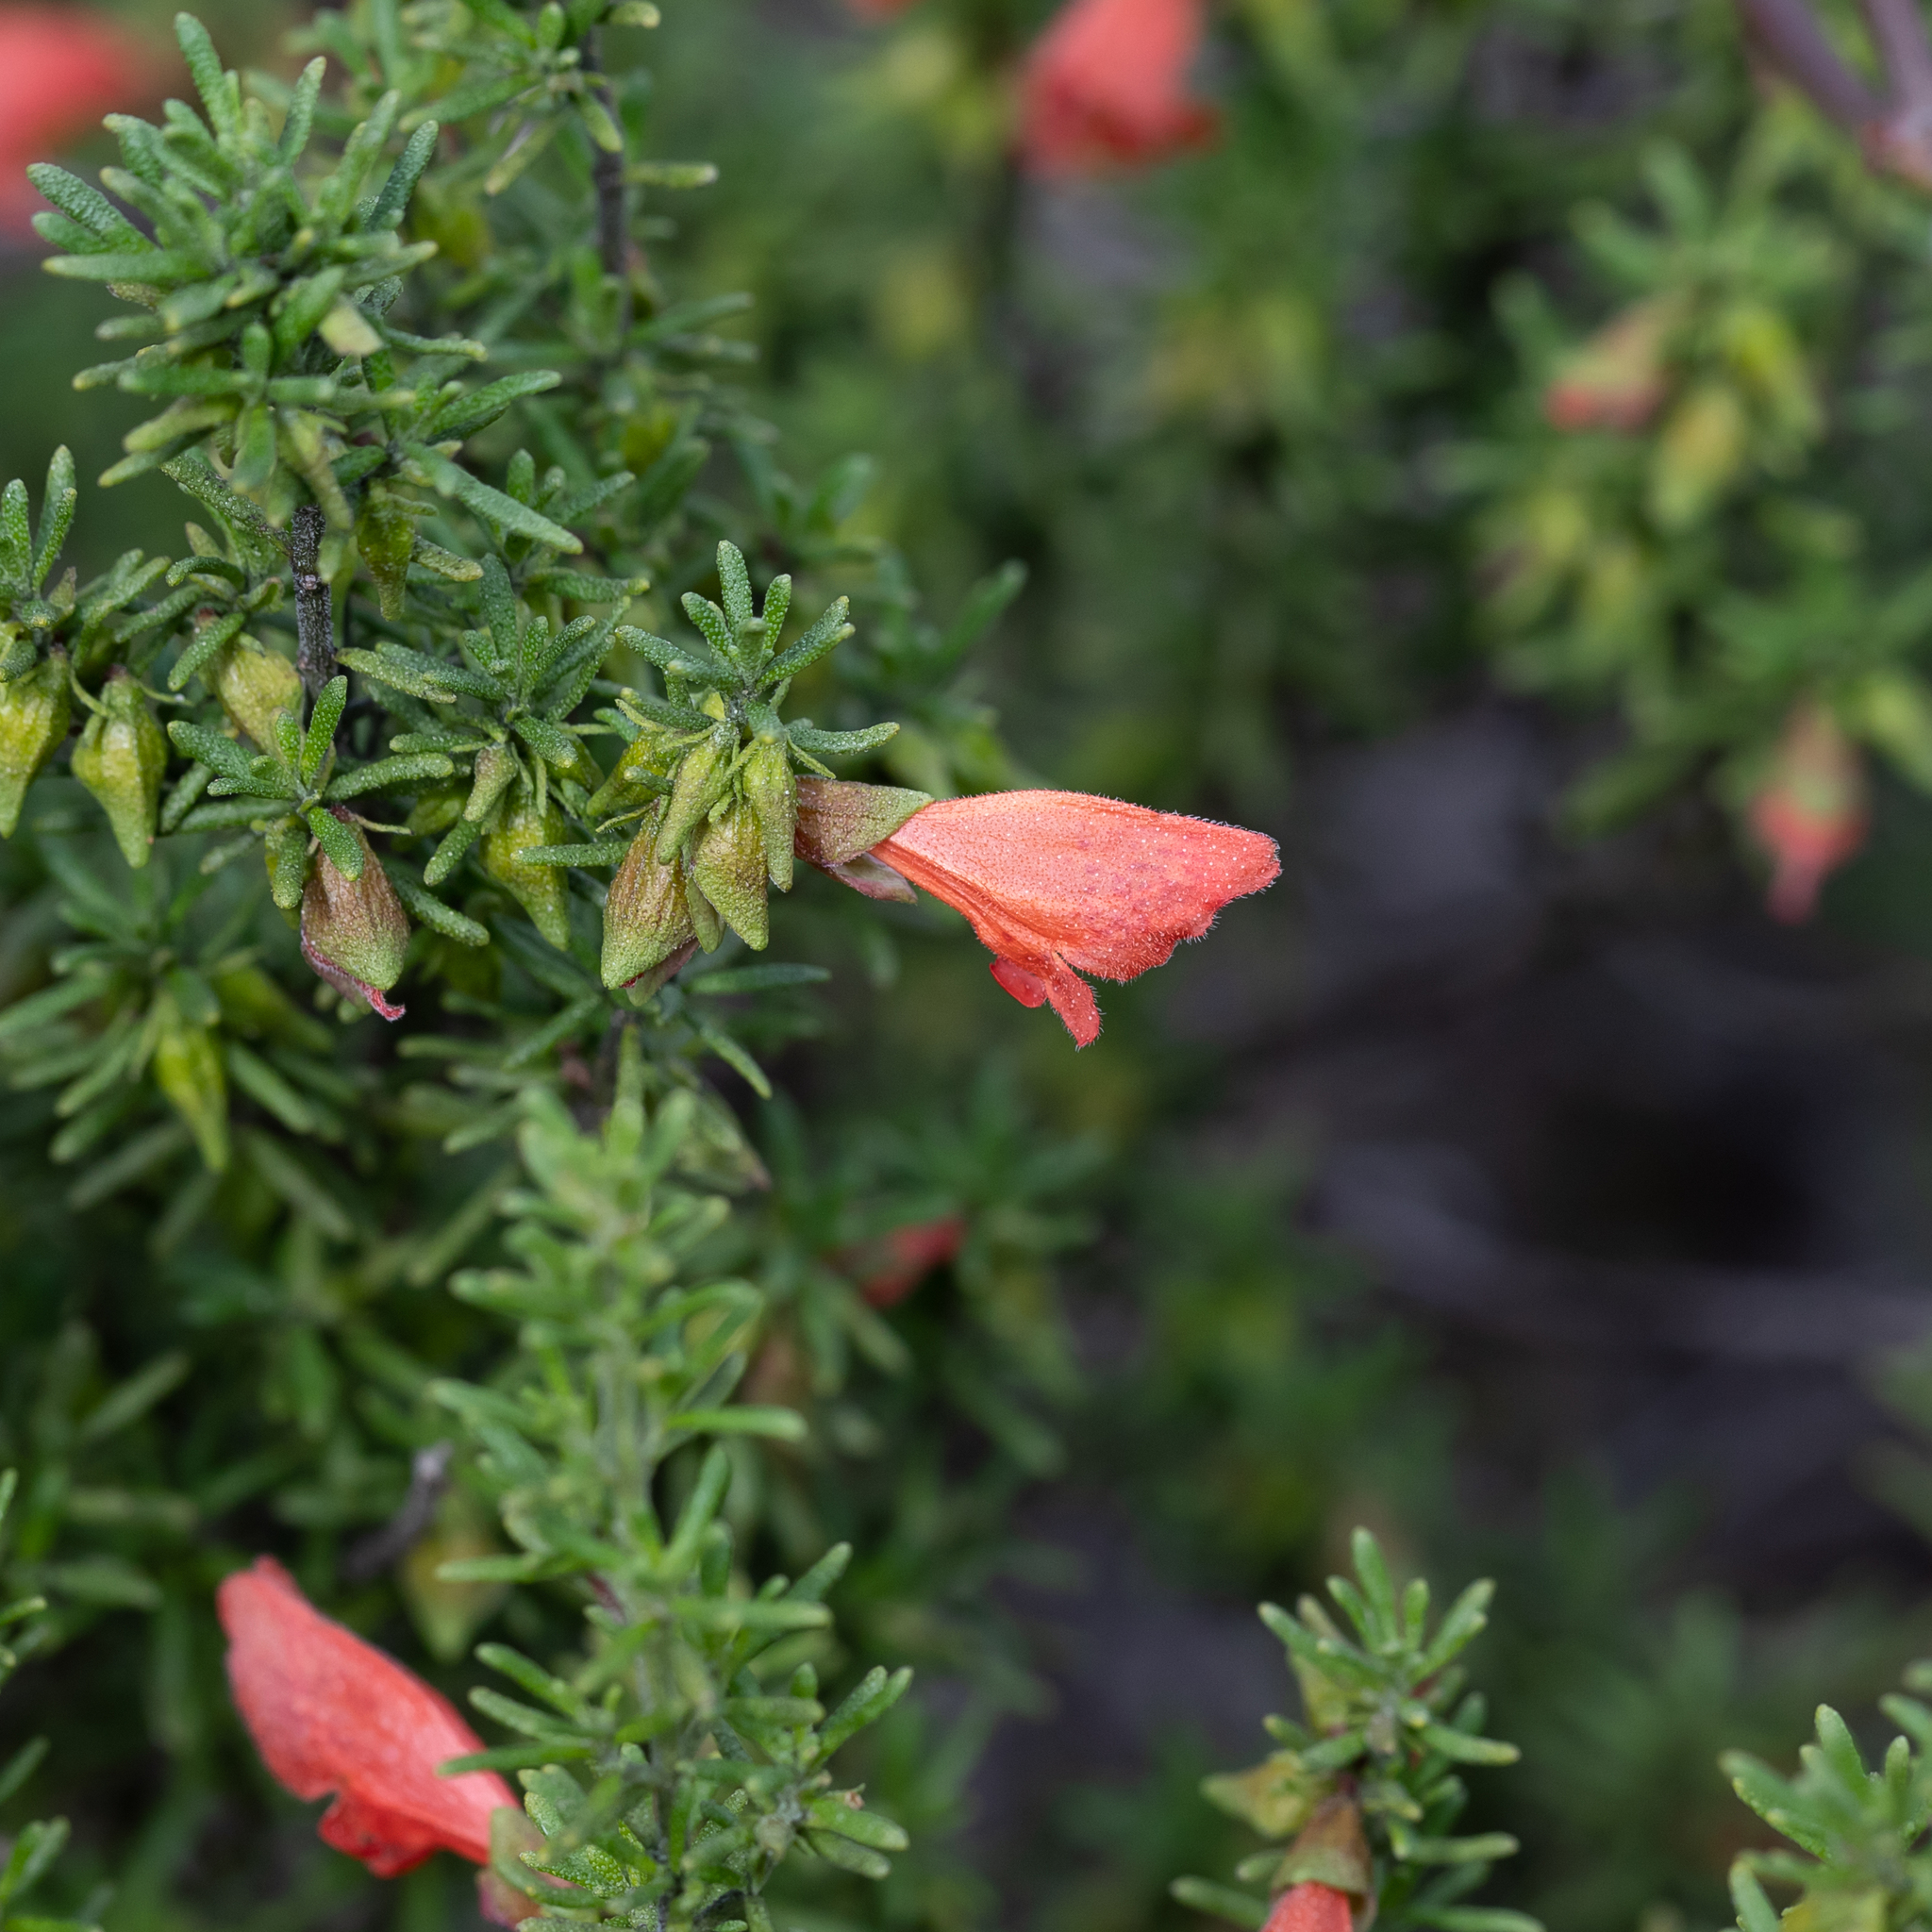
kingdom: Plantae
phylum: Tracheophyta
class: Magnoliopsida
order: Lamiales
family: Lamiaceae
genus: Prostanthera
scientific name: Prostanthera aspalathoides
